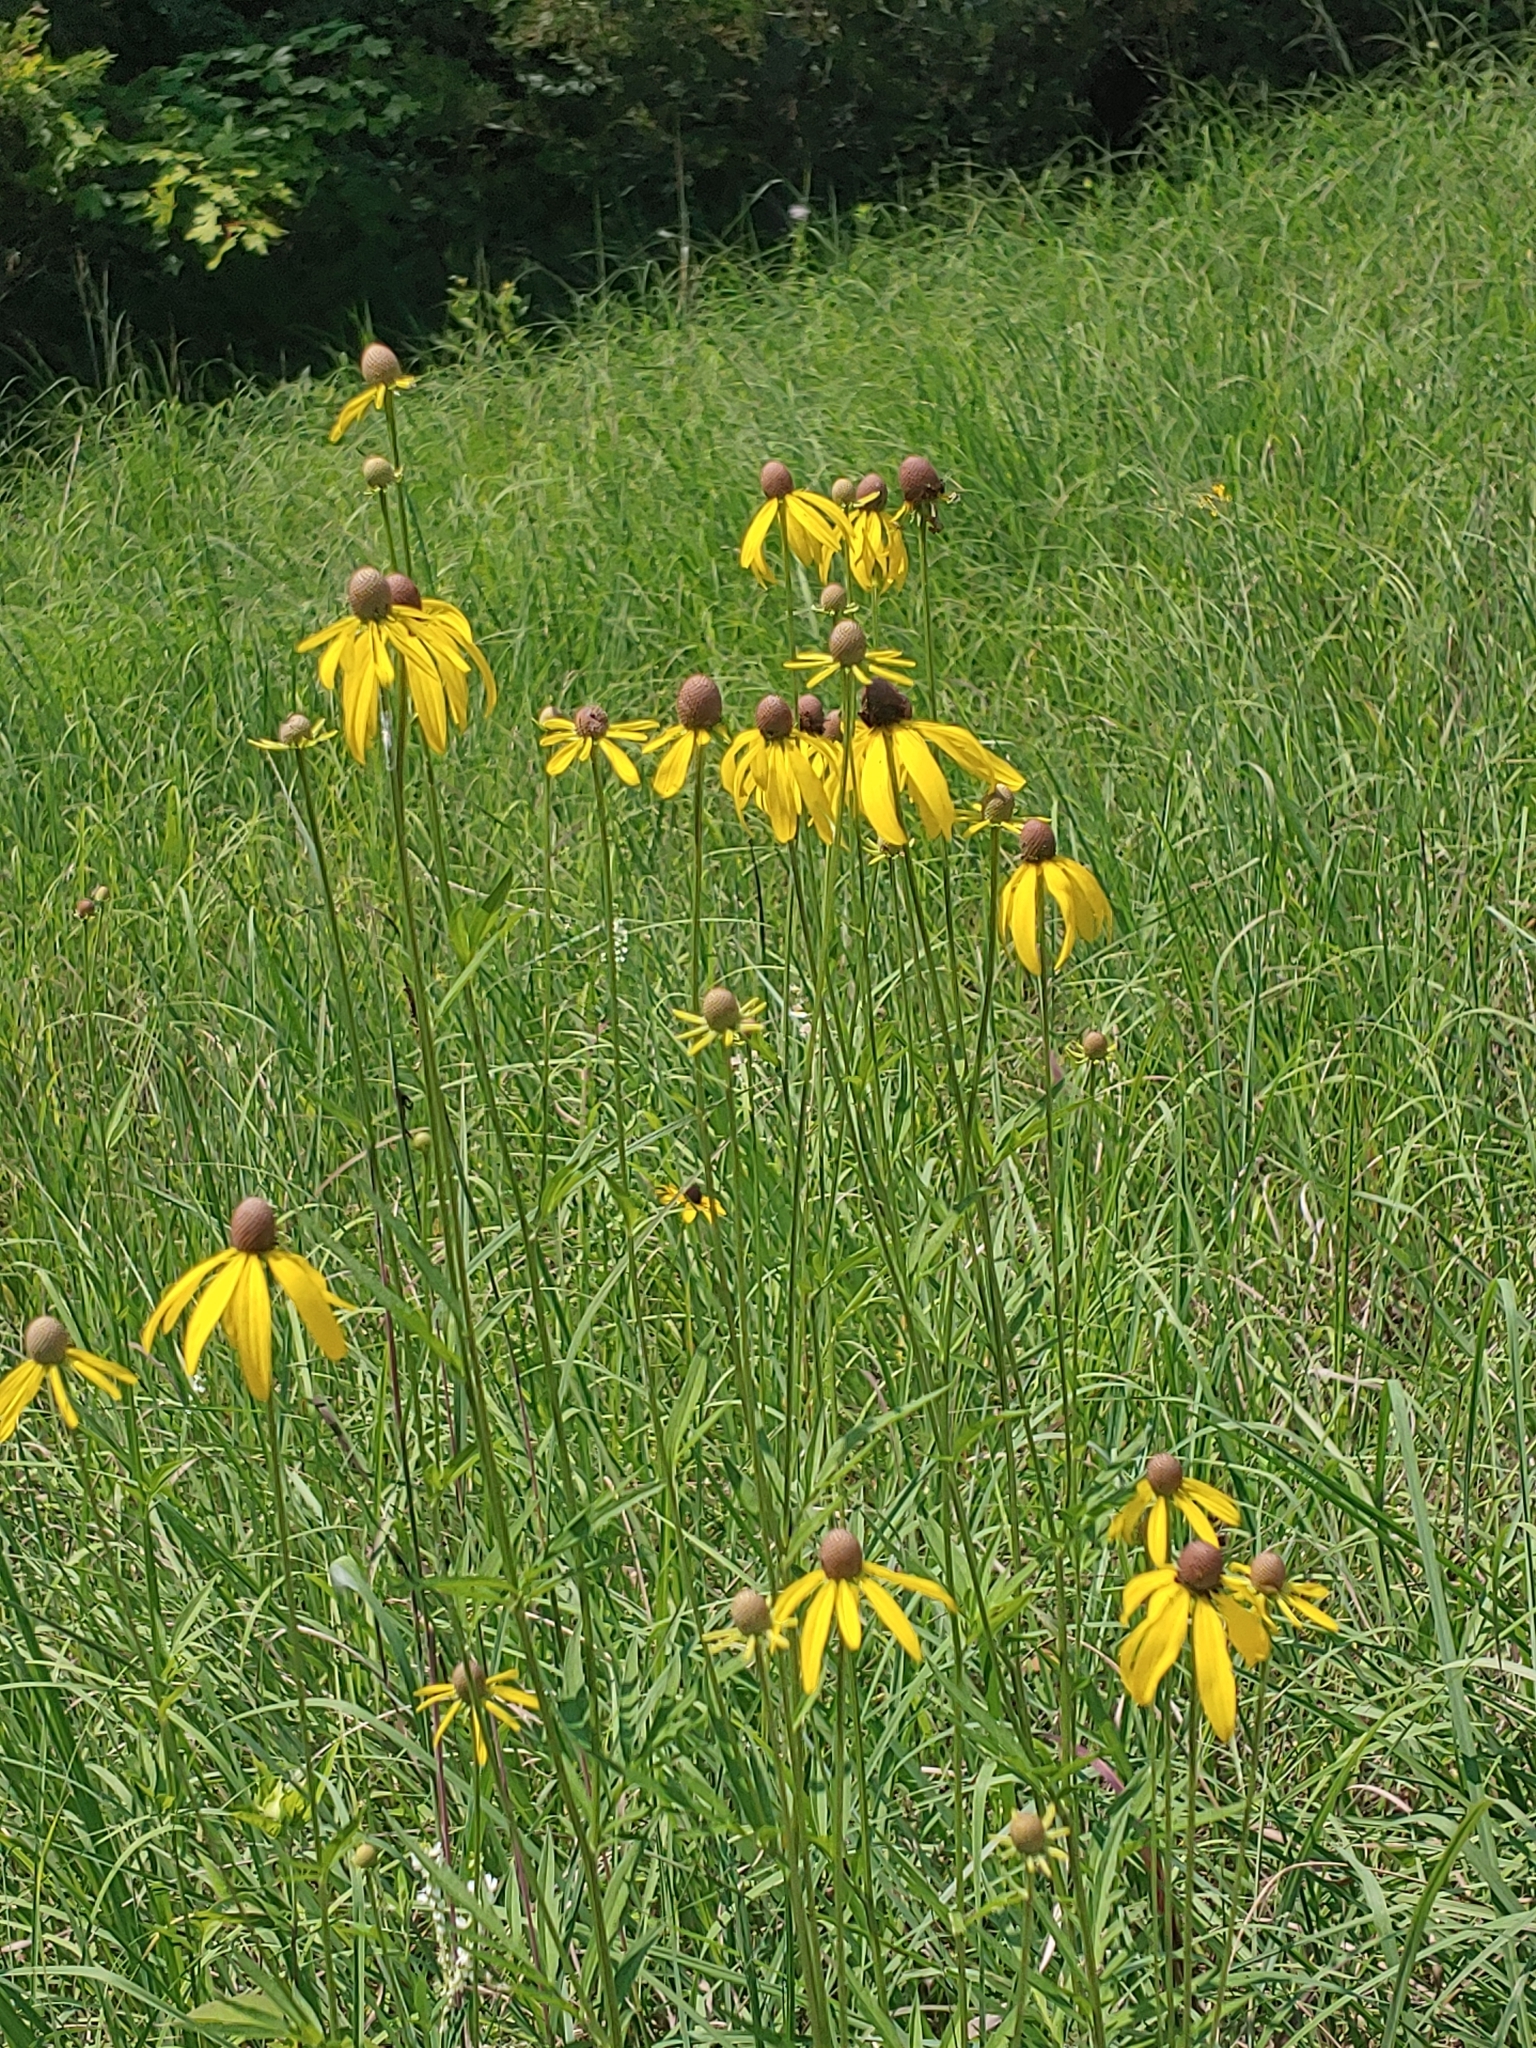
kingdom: Plantae
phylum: Tracheophyta
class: Magnoliopsida
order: Asterales
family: Asteraceae
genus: Ratibida
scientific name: Ratibida pinnata
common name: Drooping prairie-coneflower
